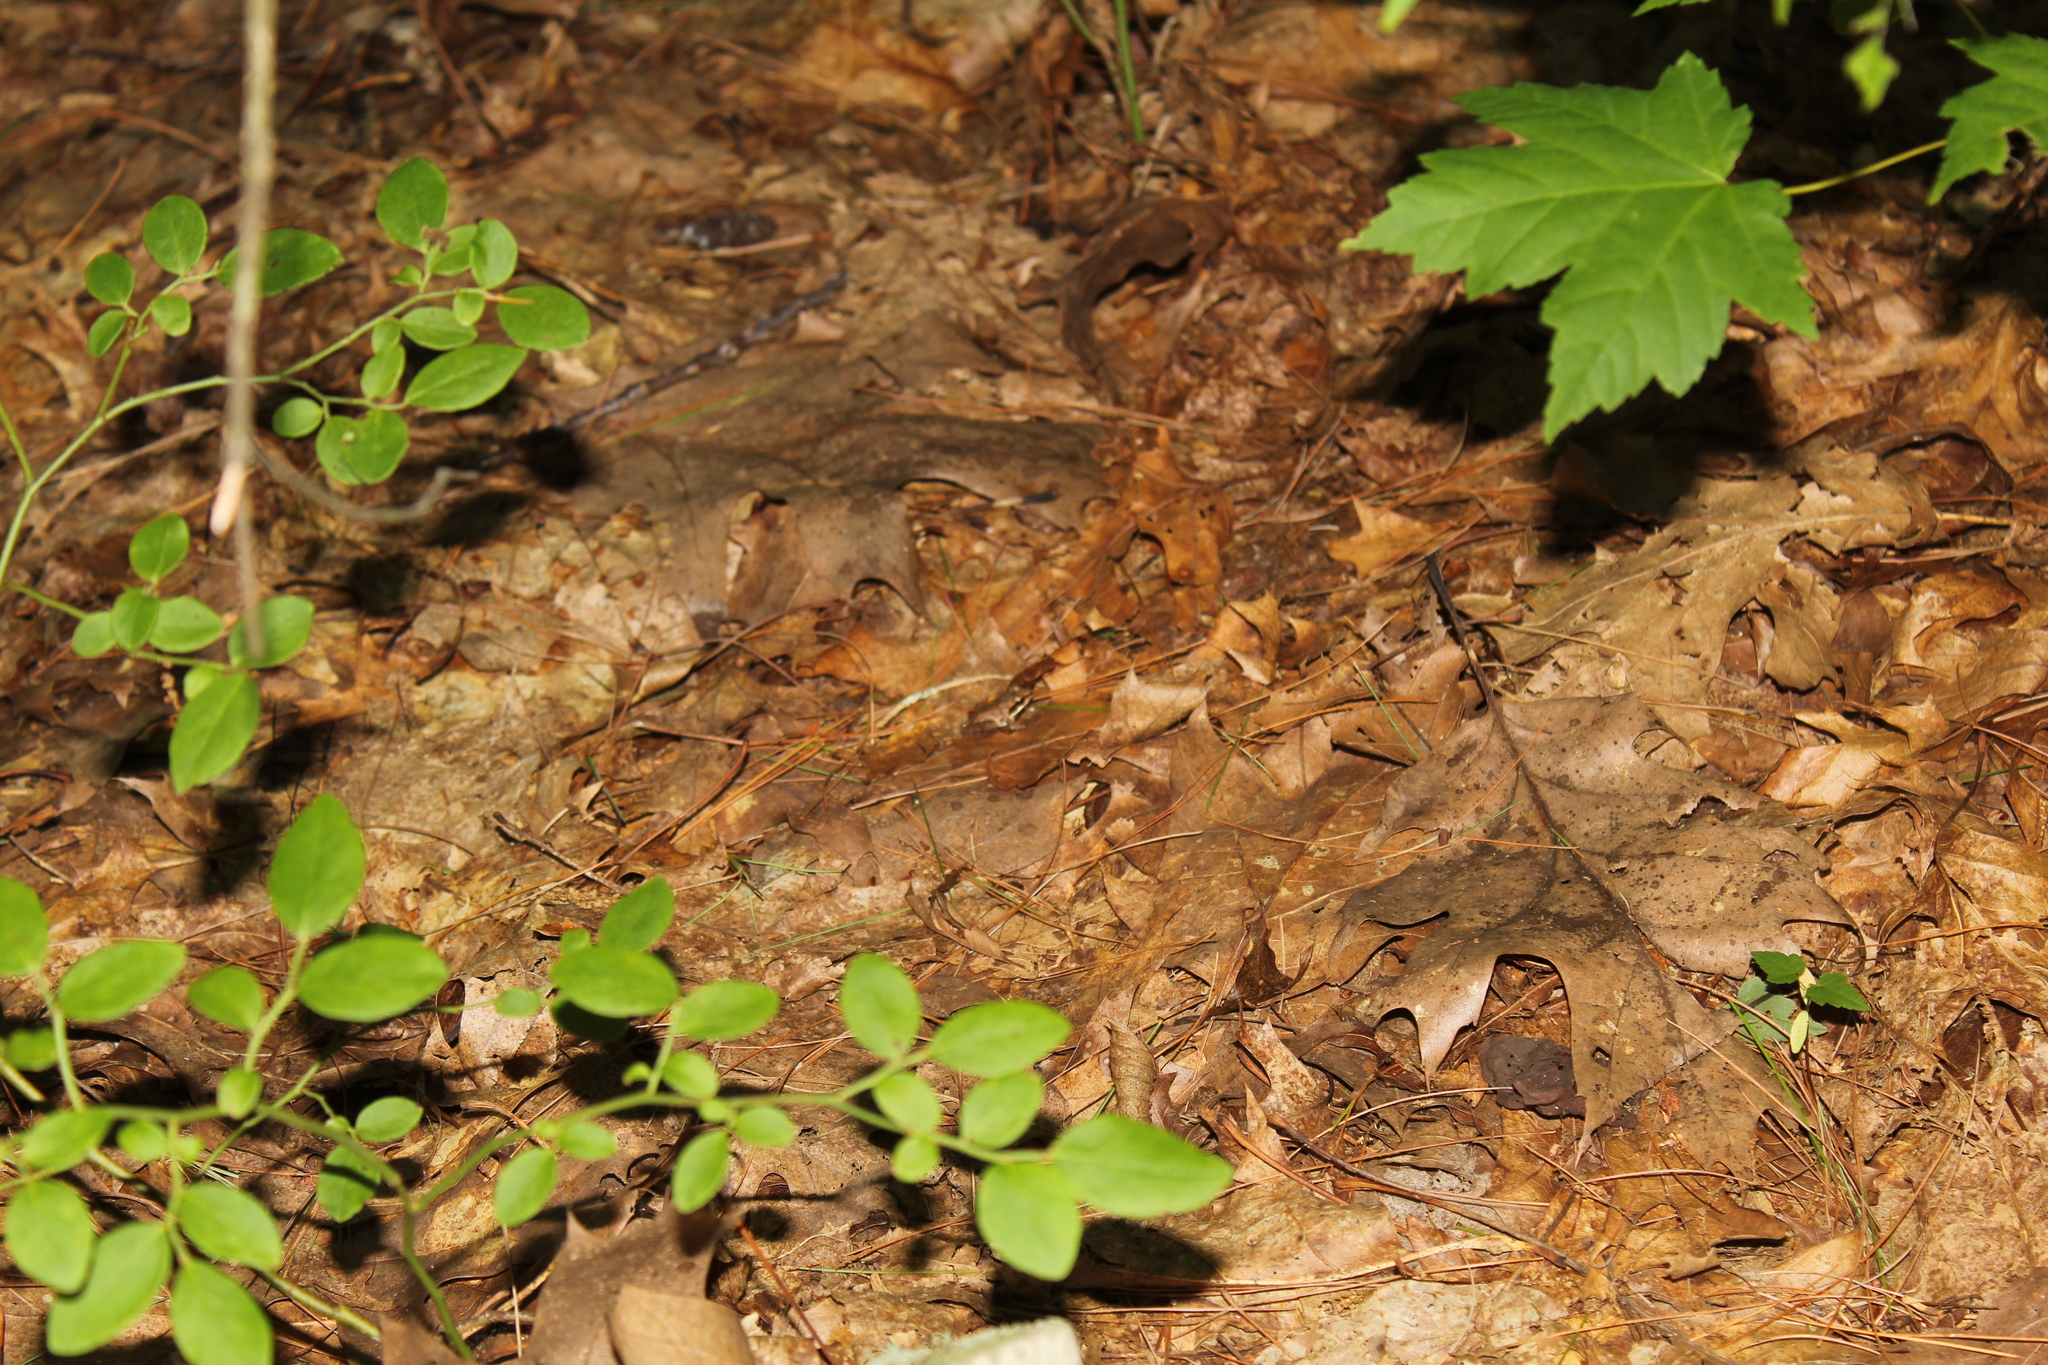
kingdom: Animalia
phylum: Chordata
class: Amphibia
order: Anura
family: Ranidae
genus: Lithobates
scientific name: Lithobates sylvaticus
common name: Wood frog
